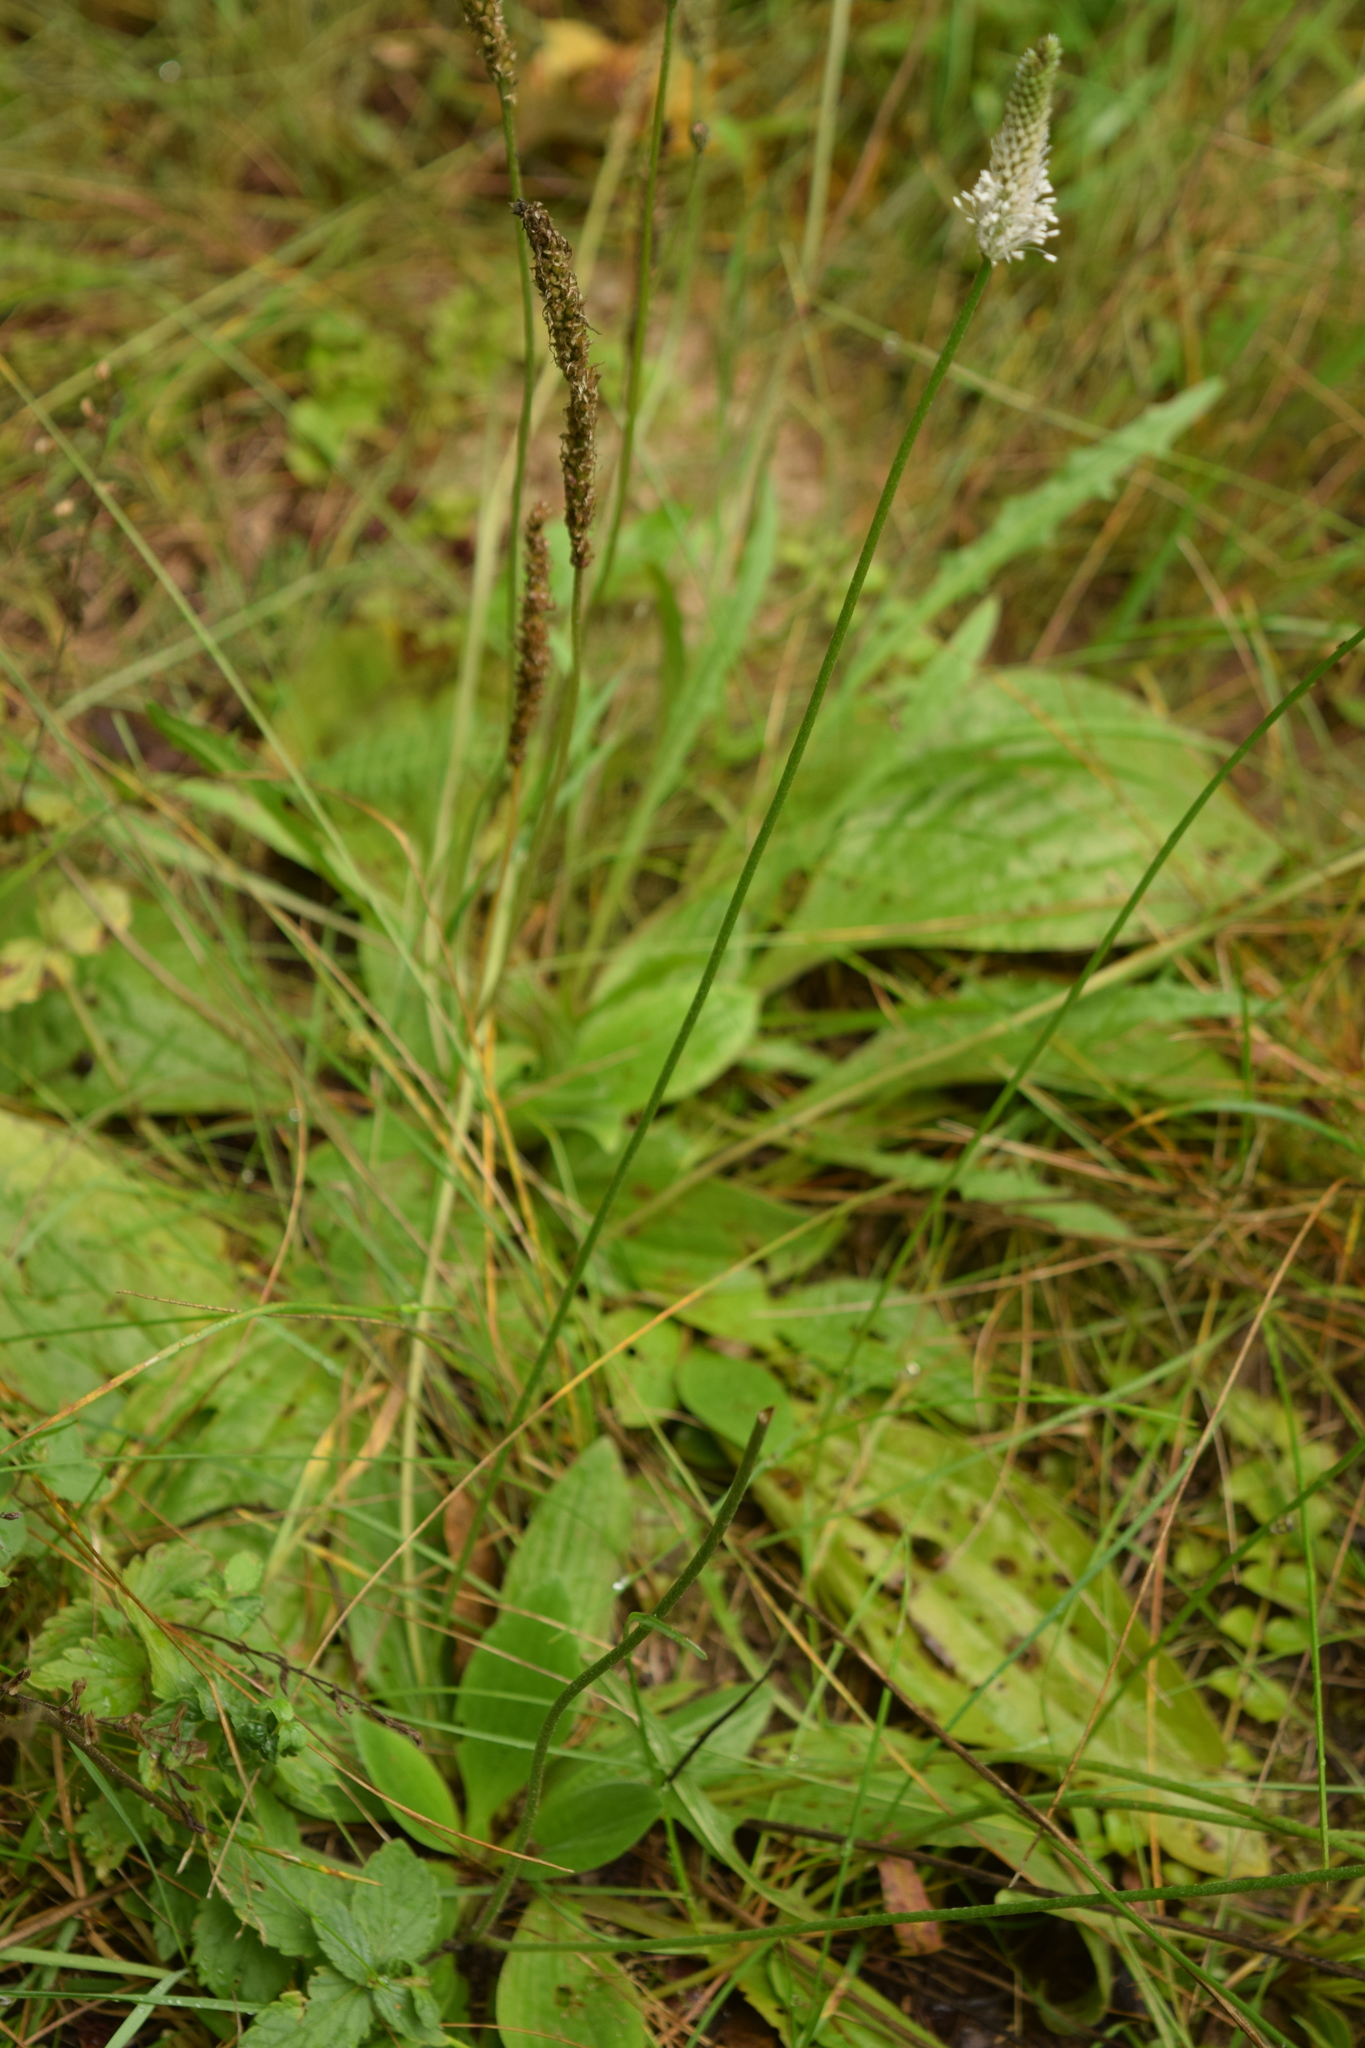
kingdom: Plantae
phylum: Tracheophyta
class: Magnoliopsida
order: Lamiales
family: Plantaginaceae
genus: Plantago
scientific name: Plantago media
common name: Hoary plantain
